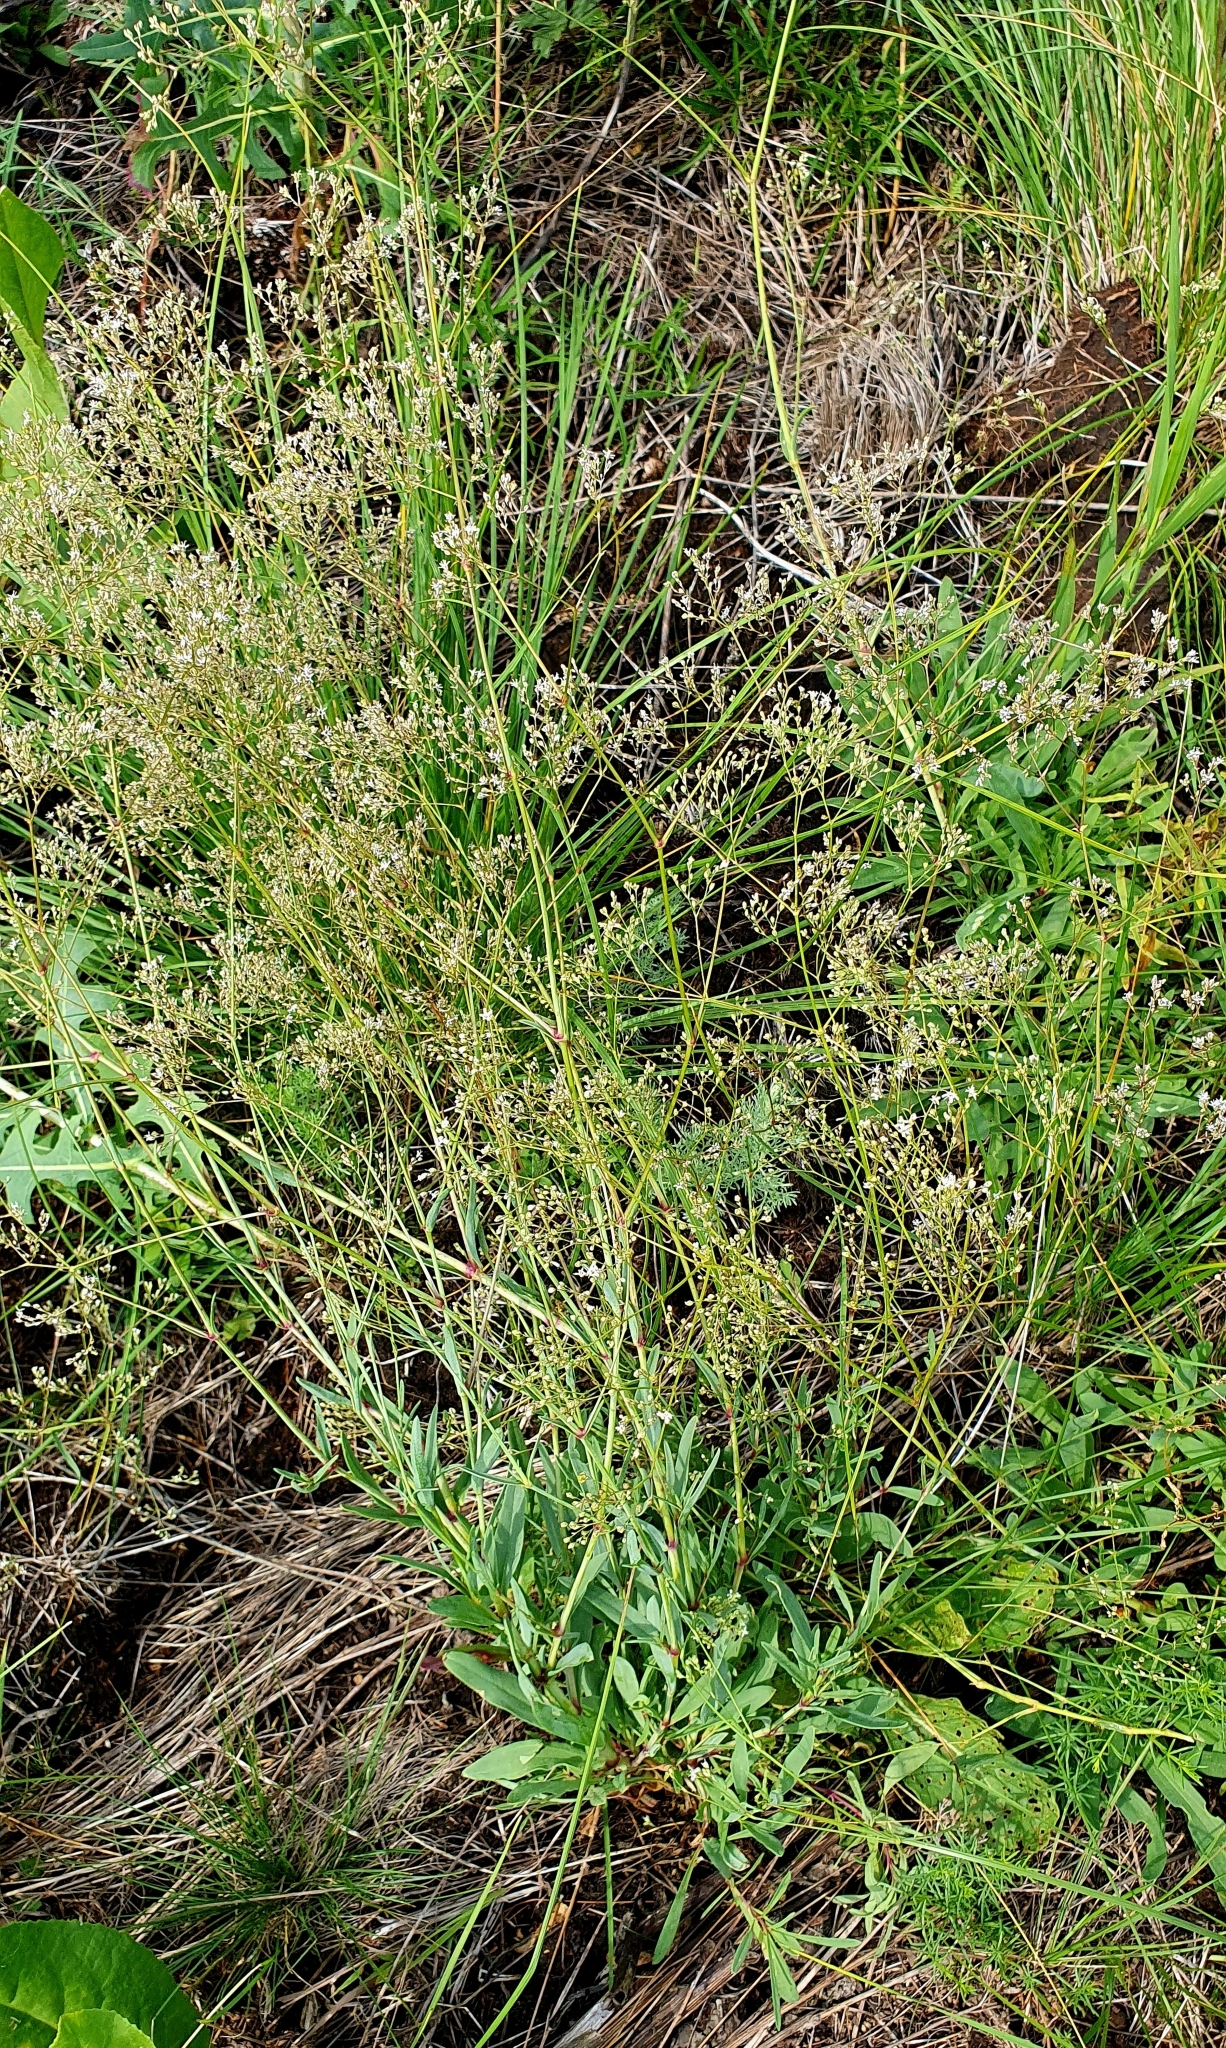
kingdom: Plantae
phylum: Tracheophyta
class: Magnoliopsida
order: Caryophyllales
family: Caryophyllaceae
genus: Gypsophila
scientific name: Gypsophila altissima
